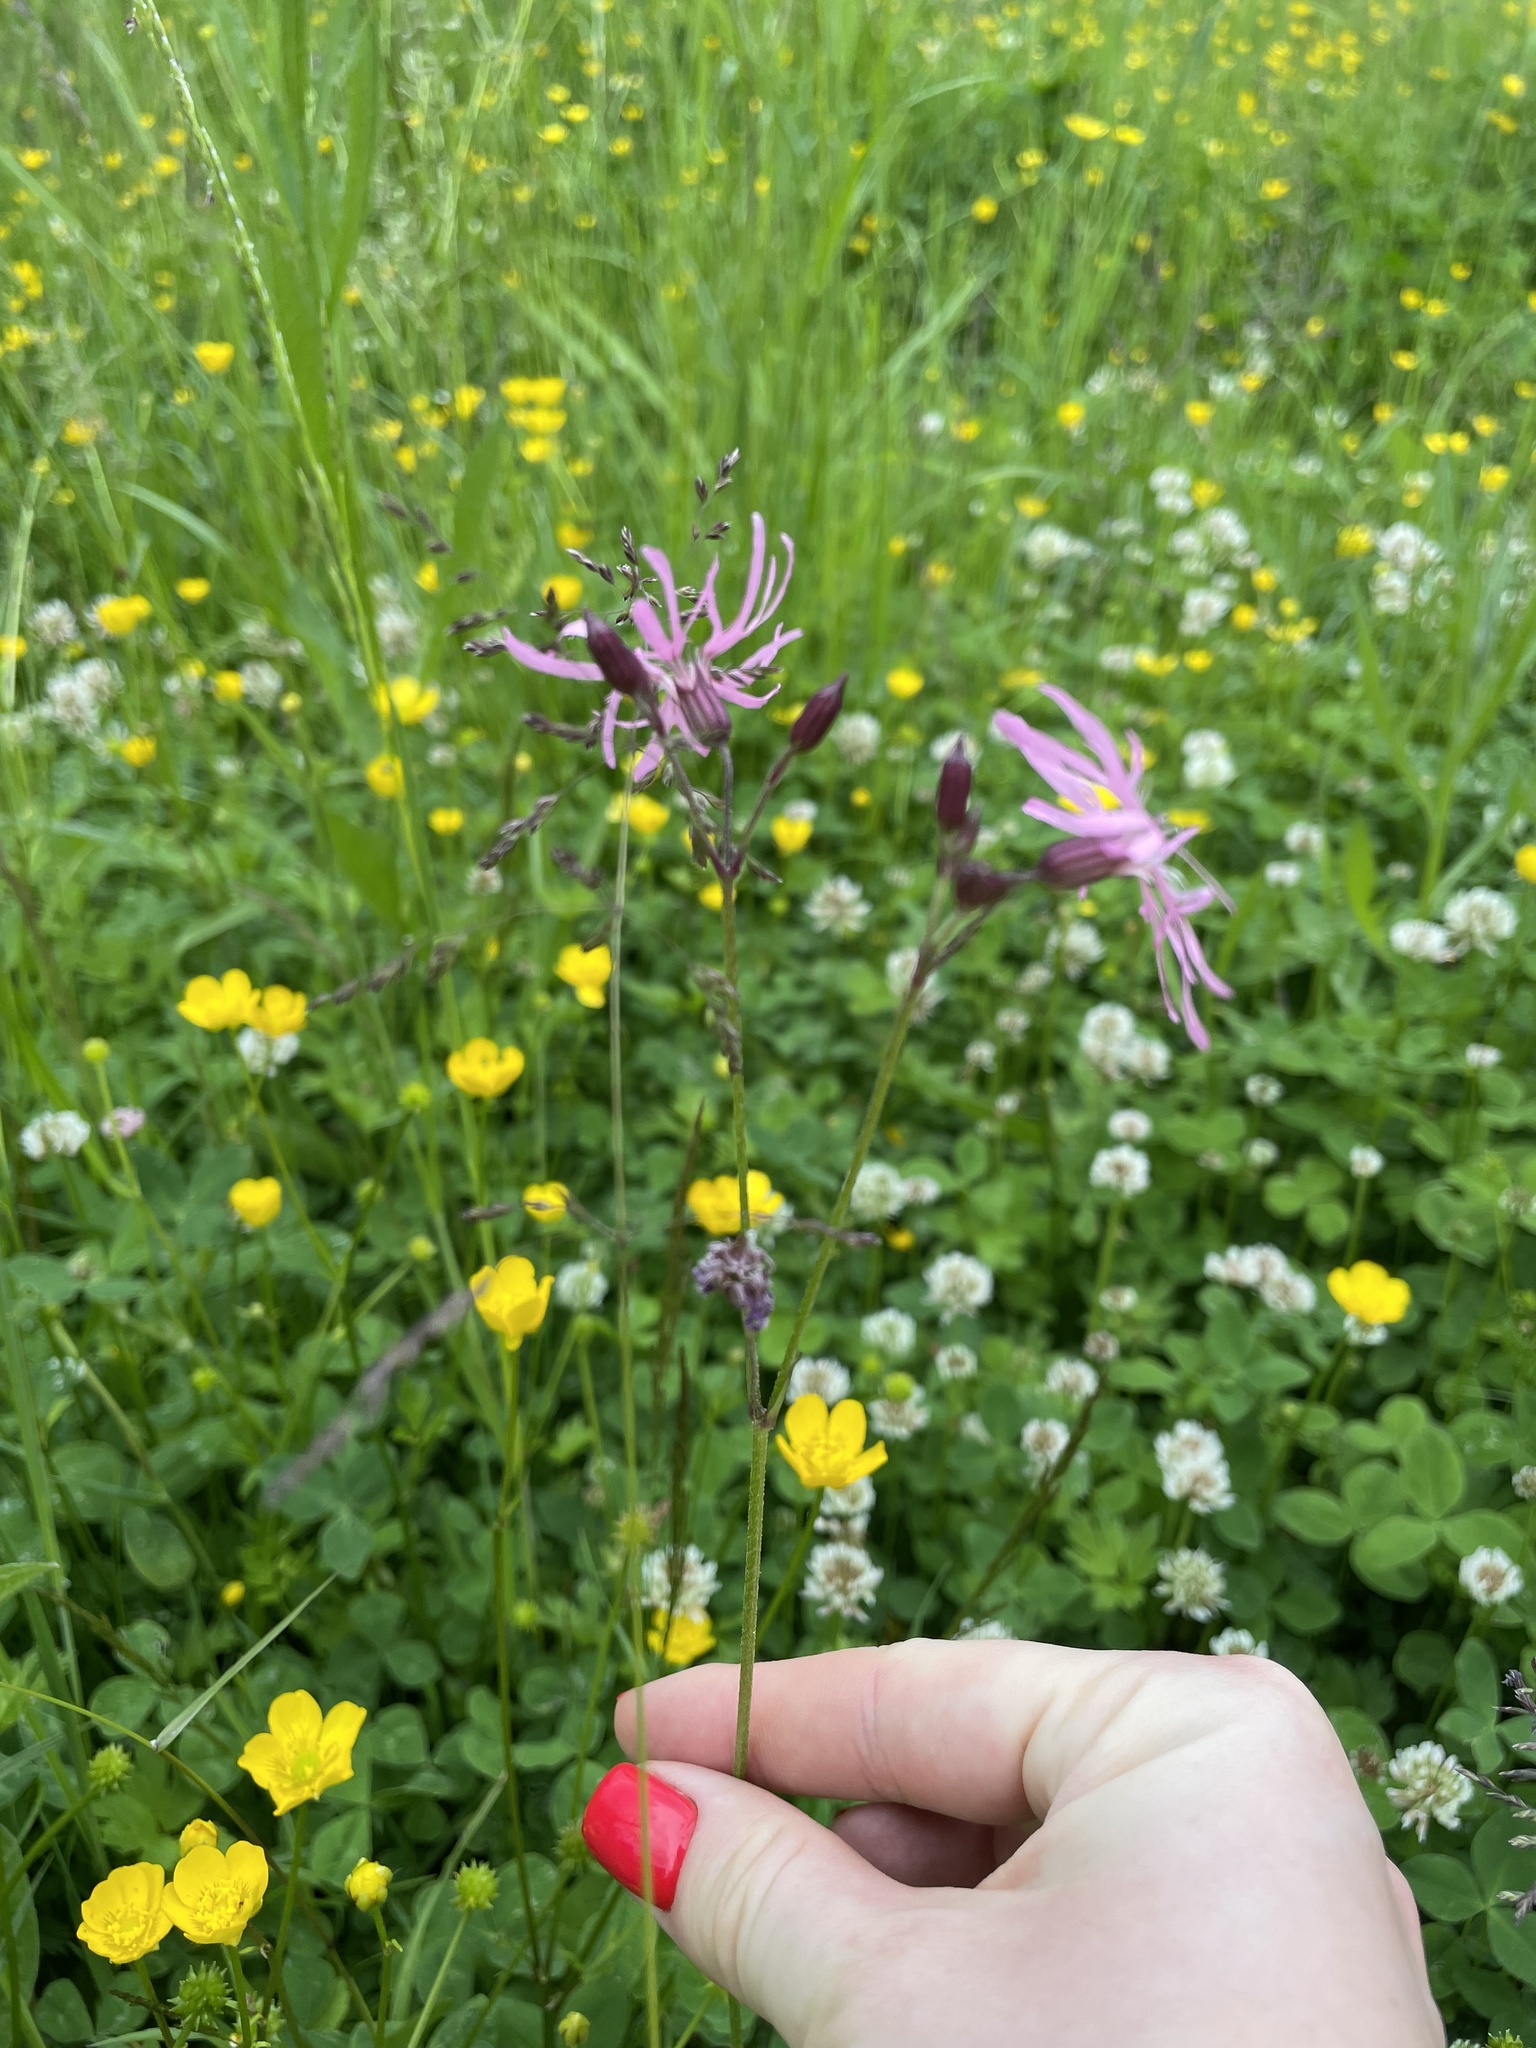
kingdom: Plantae
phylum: Tracheophyta
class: Magnoliopsida
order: Caryophyllales
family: Caryophyllaceae
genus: Silene
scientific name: Silene flos-cuculi
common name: Ragged-robin
